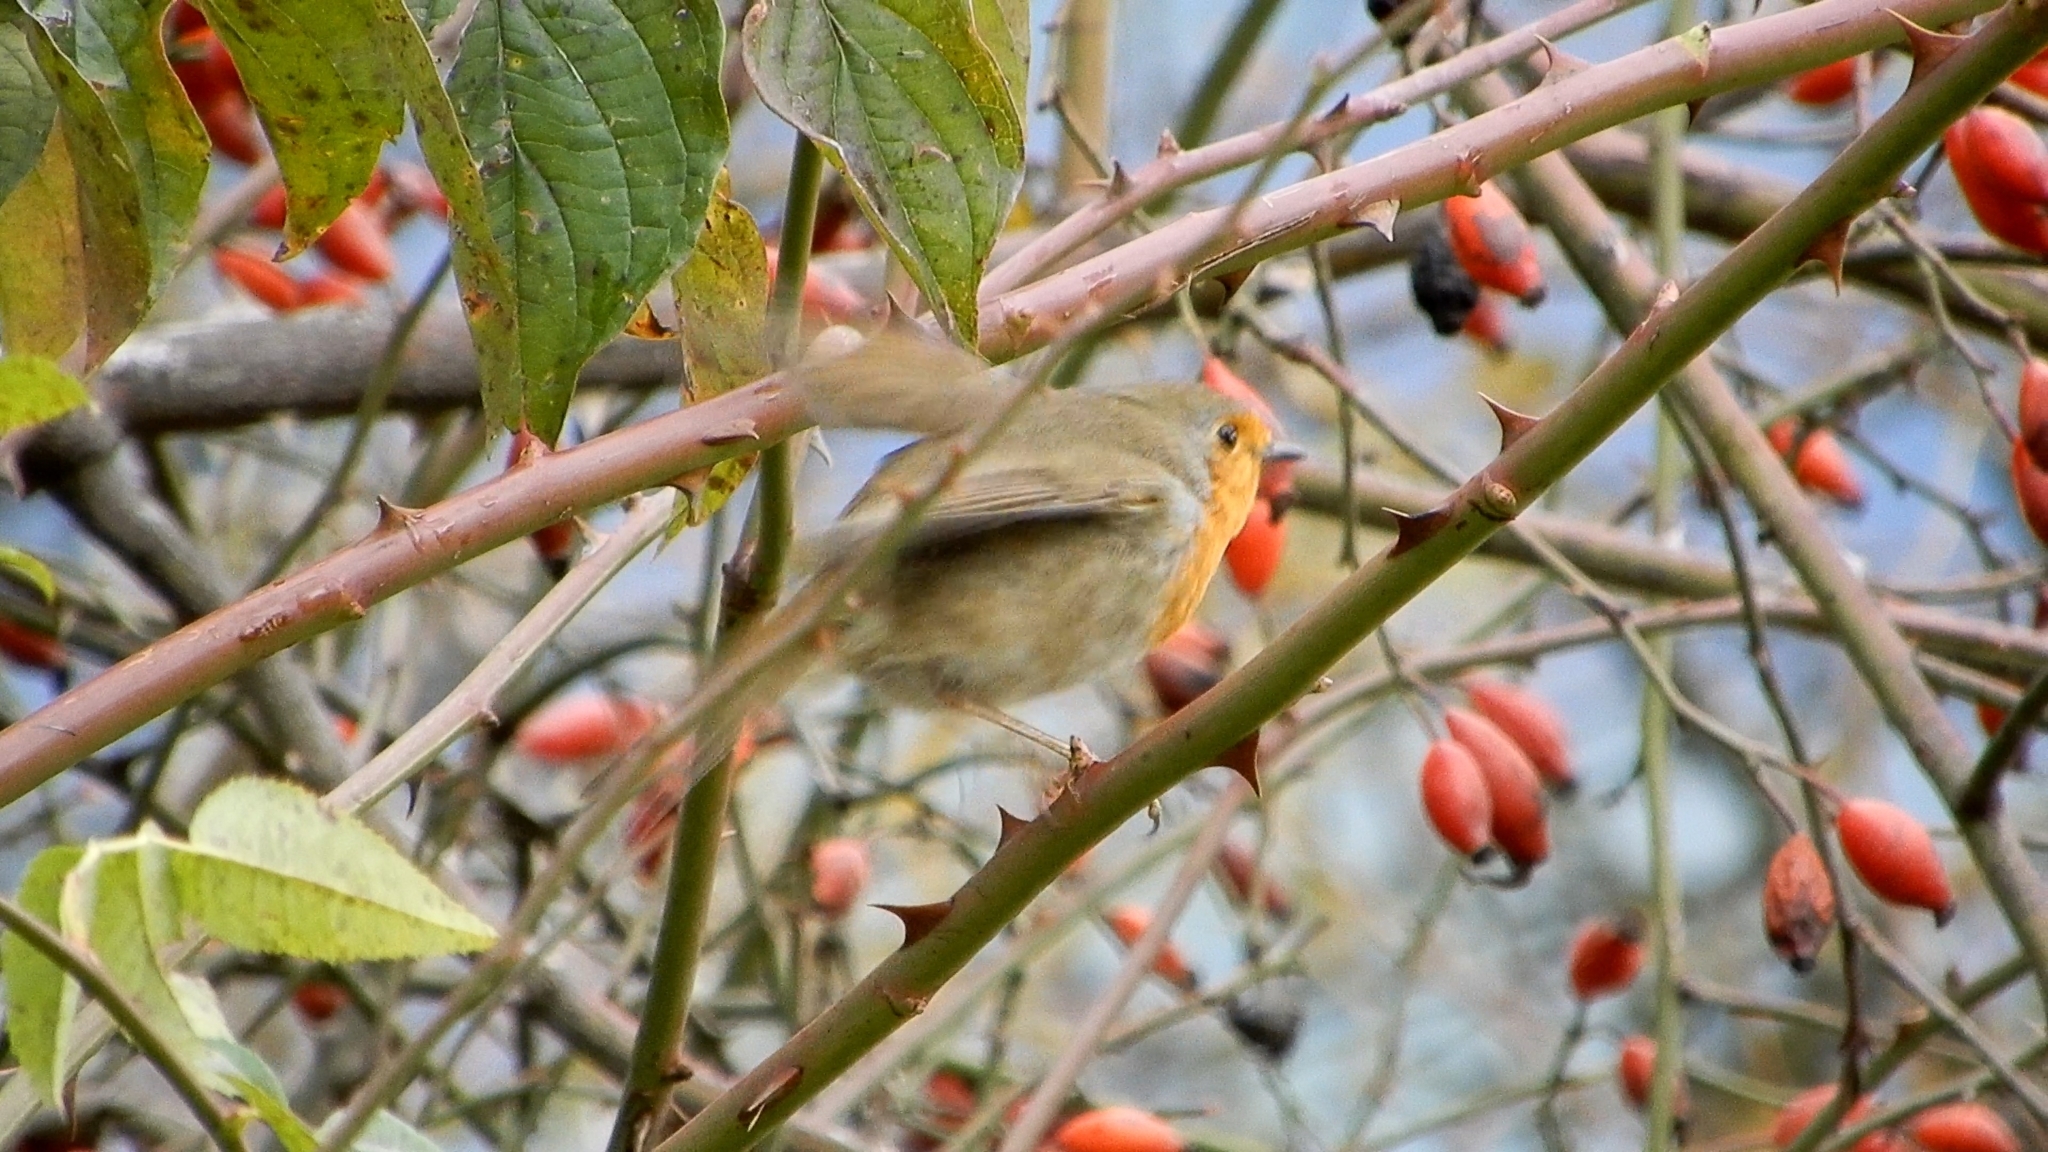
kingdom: Animalia
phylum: Chordata
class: Aves
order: Passeriformes
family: Muscicapidae
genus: Erithacus
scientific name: Erithacus rubecula
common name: European robin
